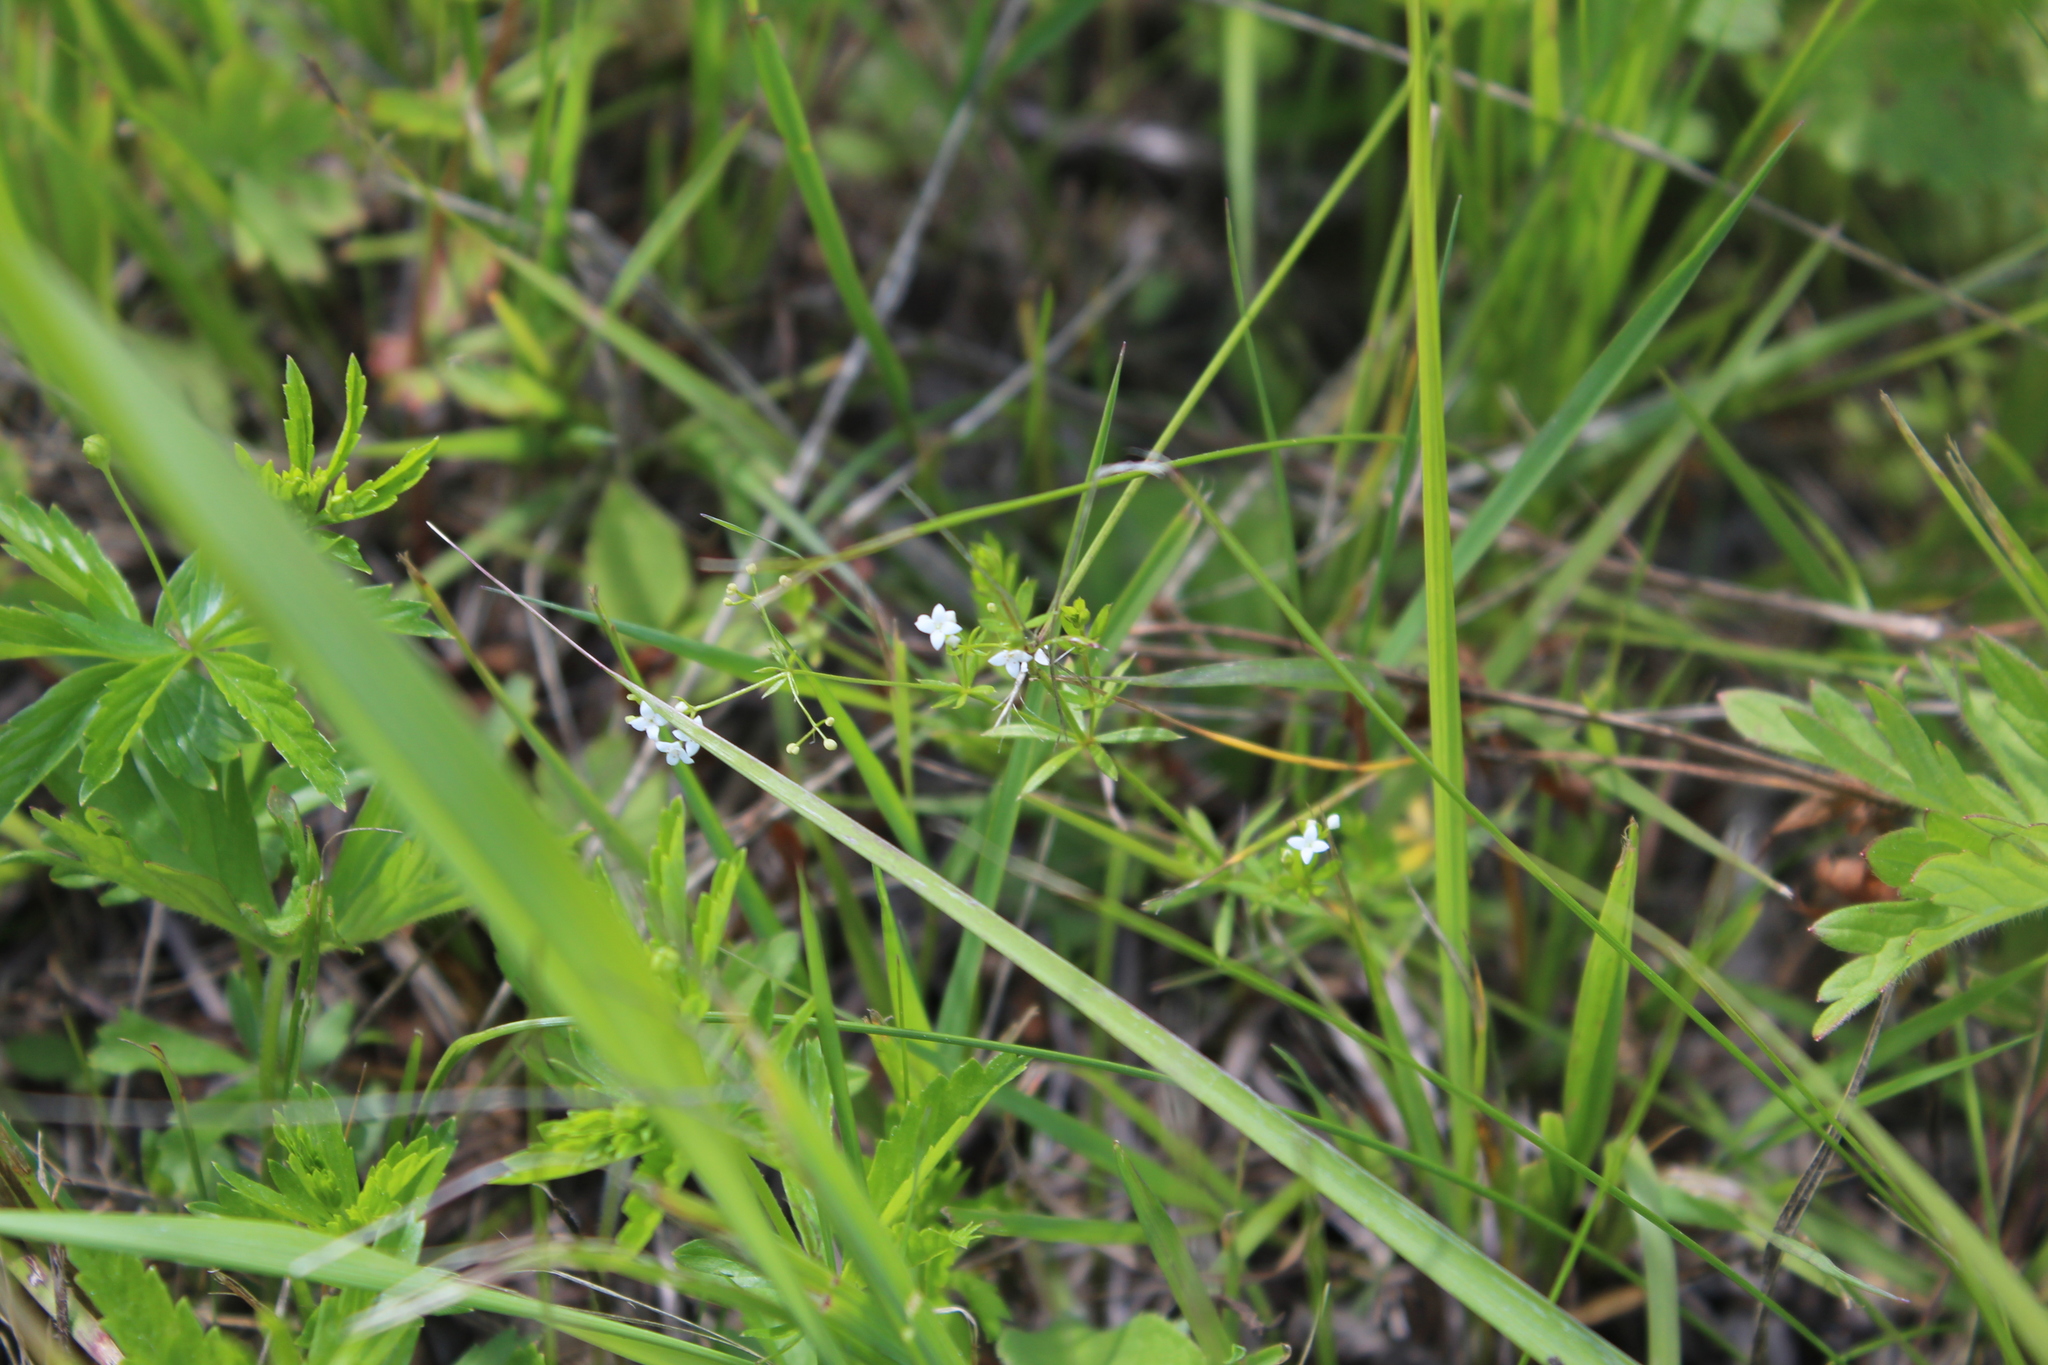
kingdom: Plantae
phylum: Tracheophyta
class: Magnoliopsida
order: Gentianales
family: Rubiaceae
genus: Galium
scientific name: Galium uliginosum
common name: Fen bedstraw
